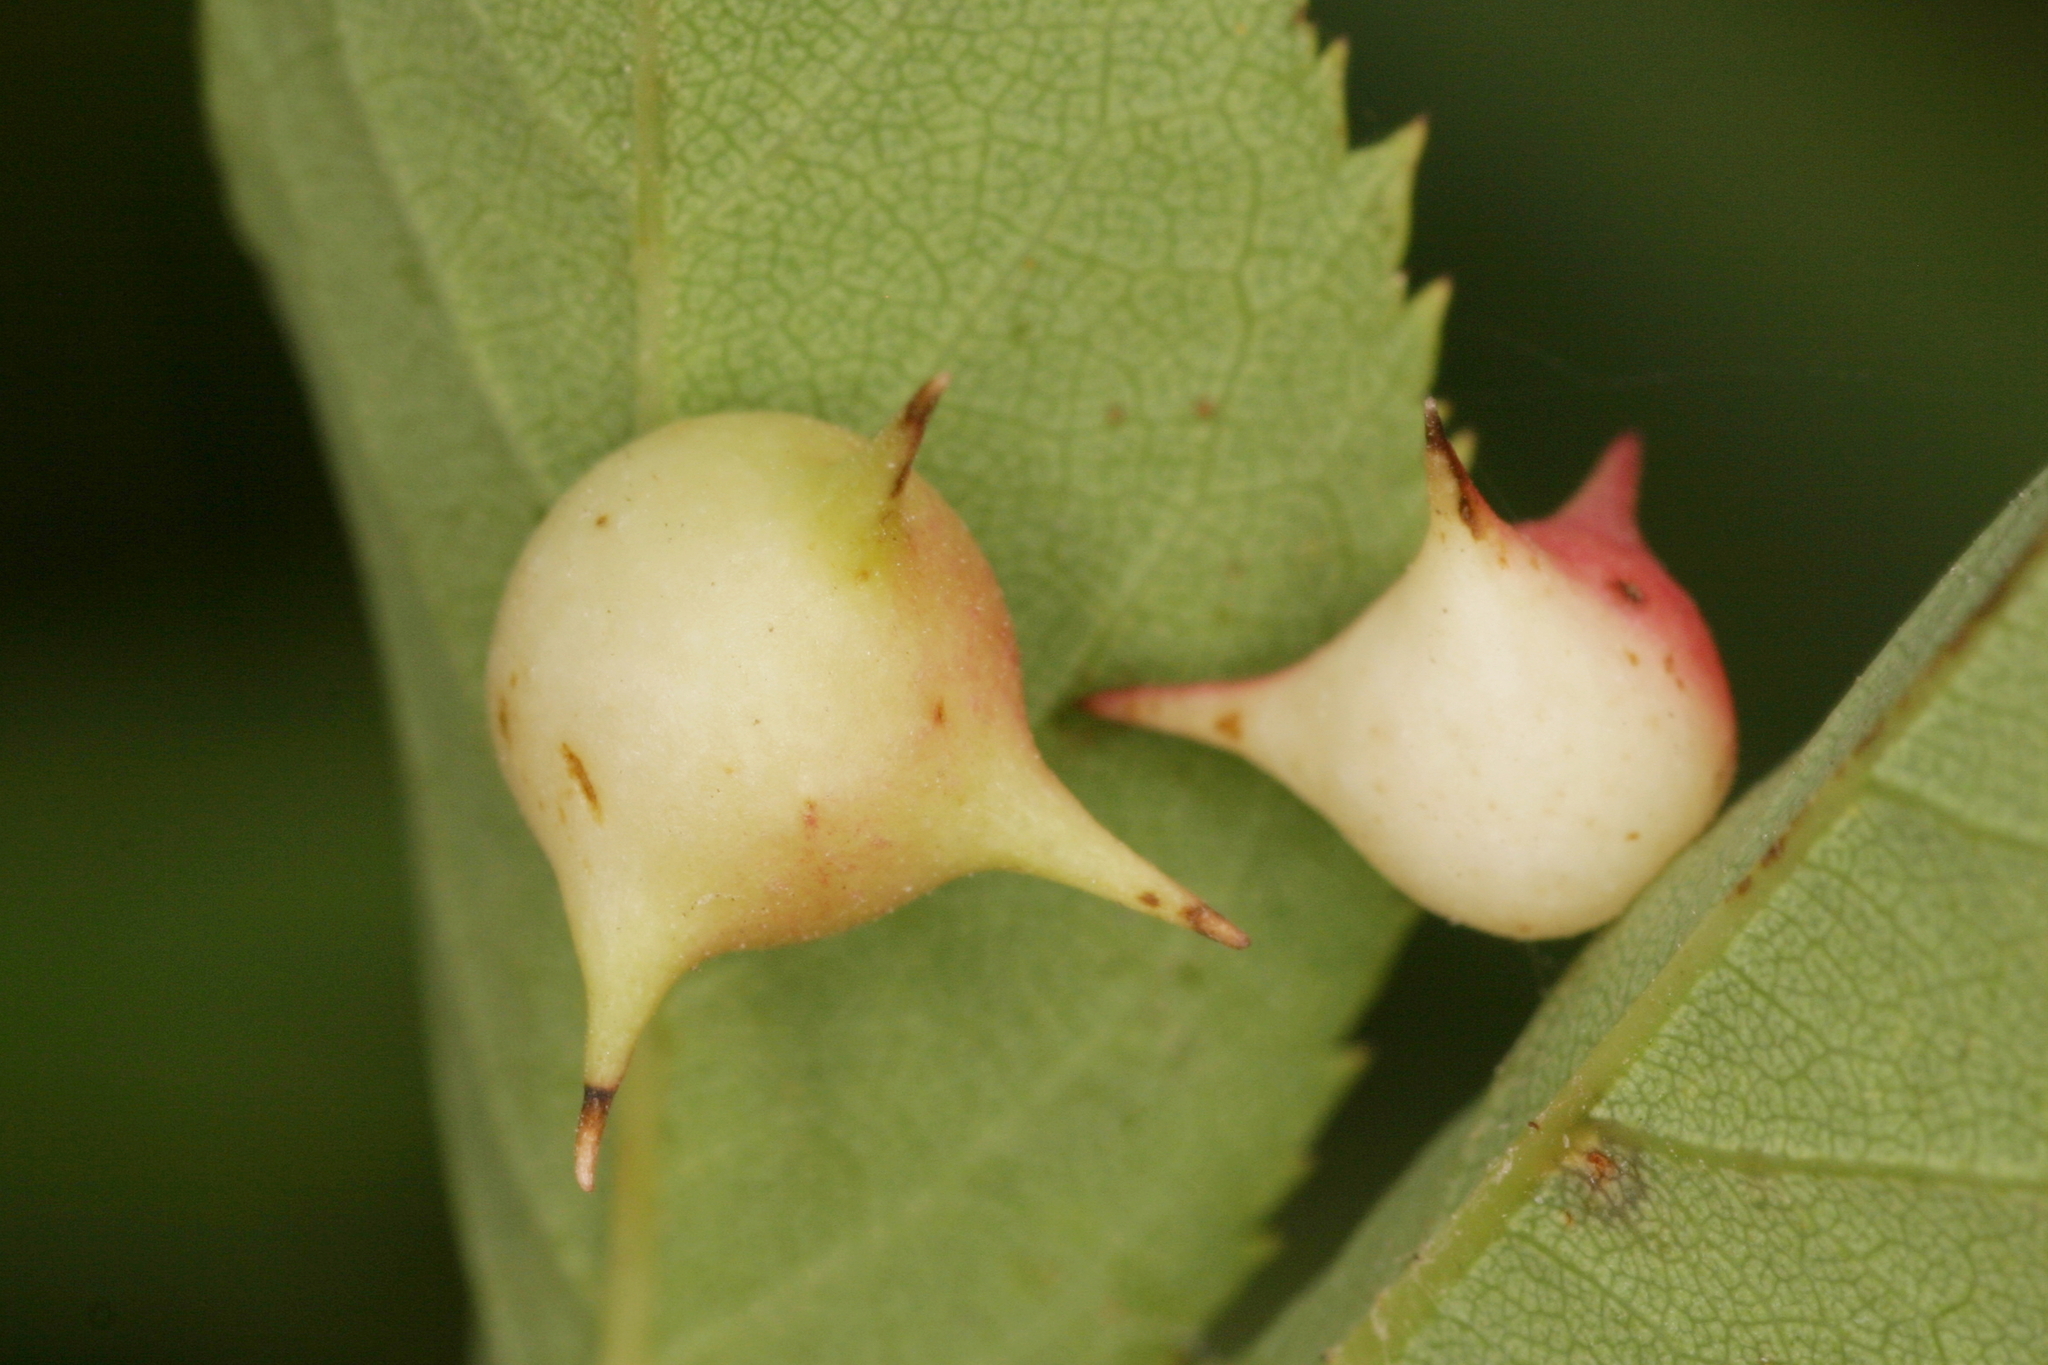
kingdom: Animalia
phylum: Arthropoda
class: Insecta
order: Hymenoptera
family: Cynipidae
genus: Diplolepis
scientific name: Diplolepis nervosa
